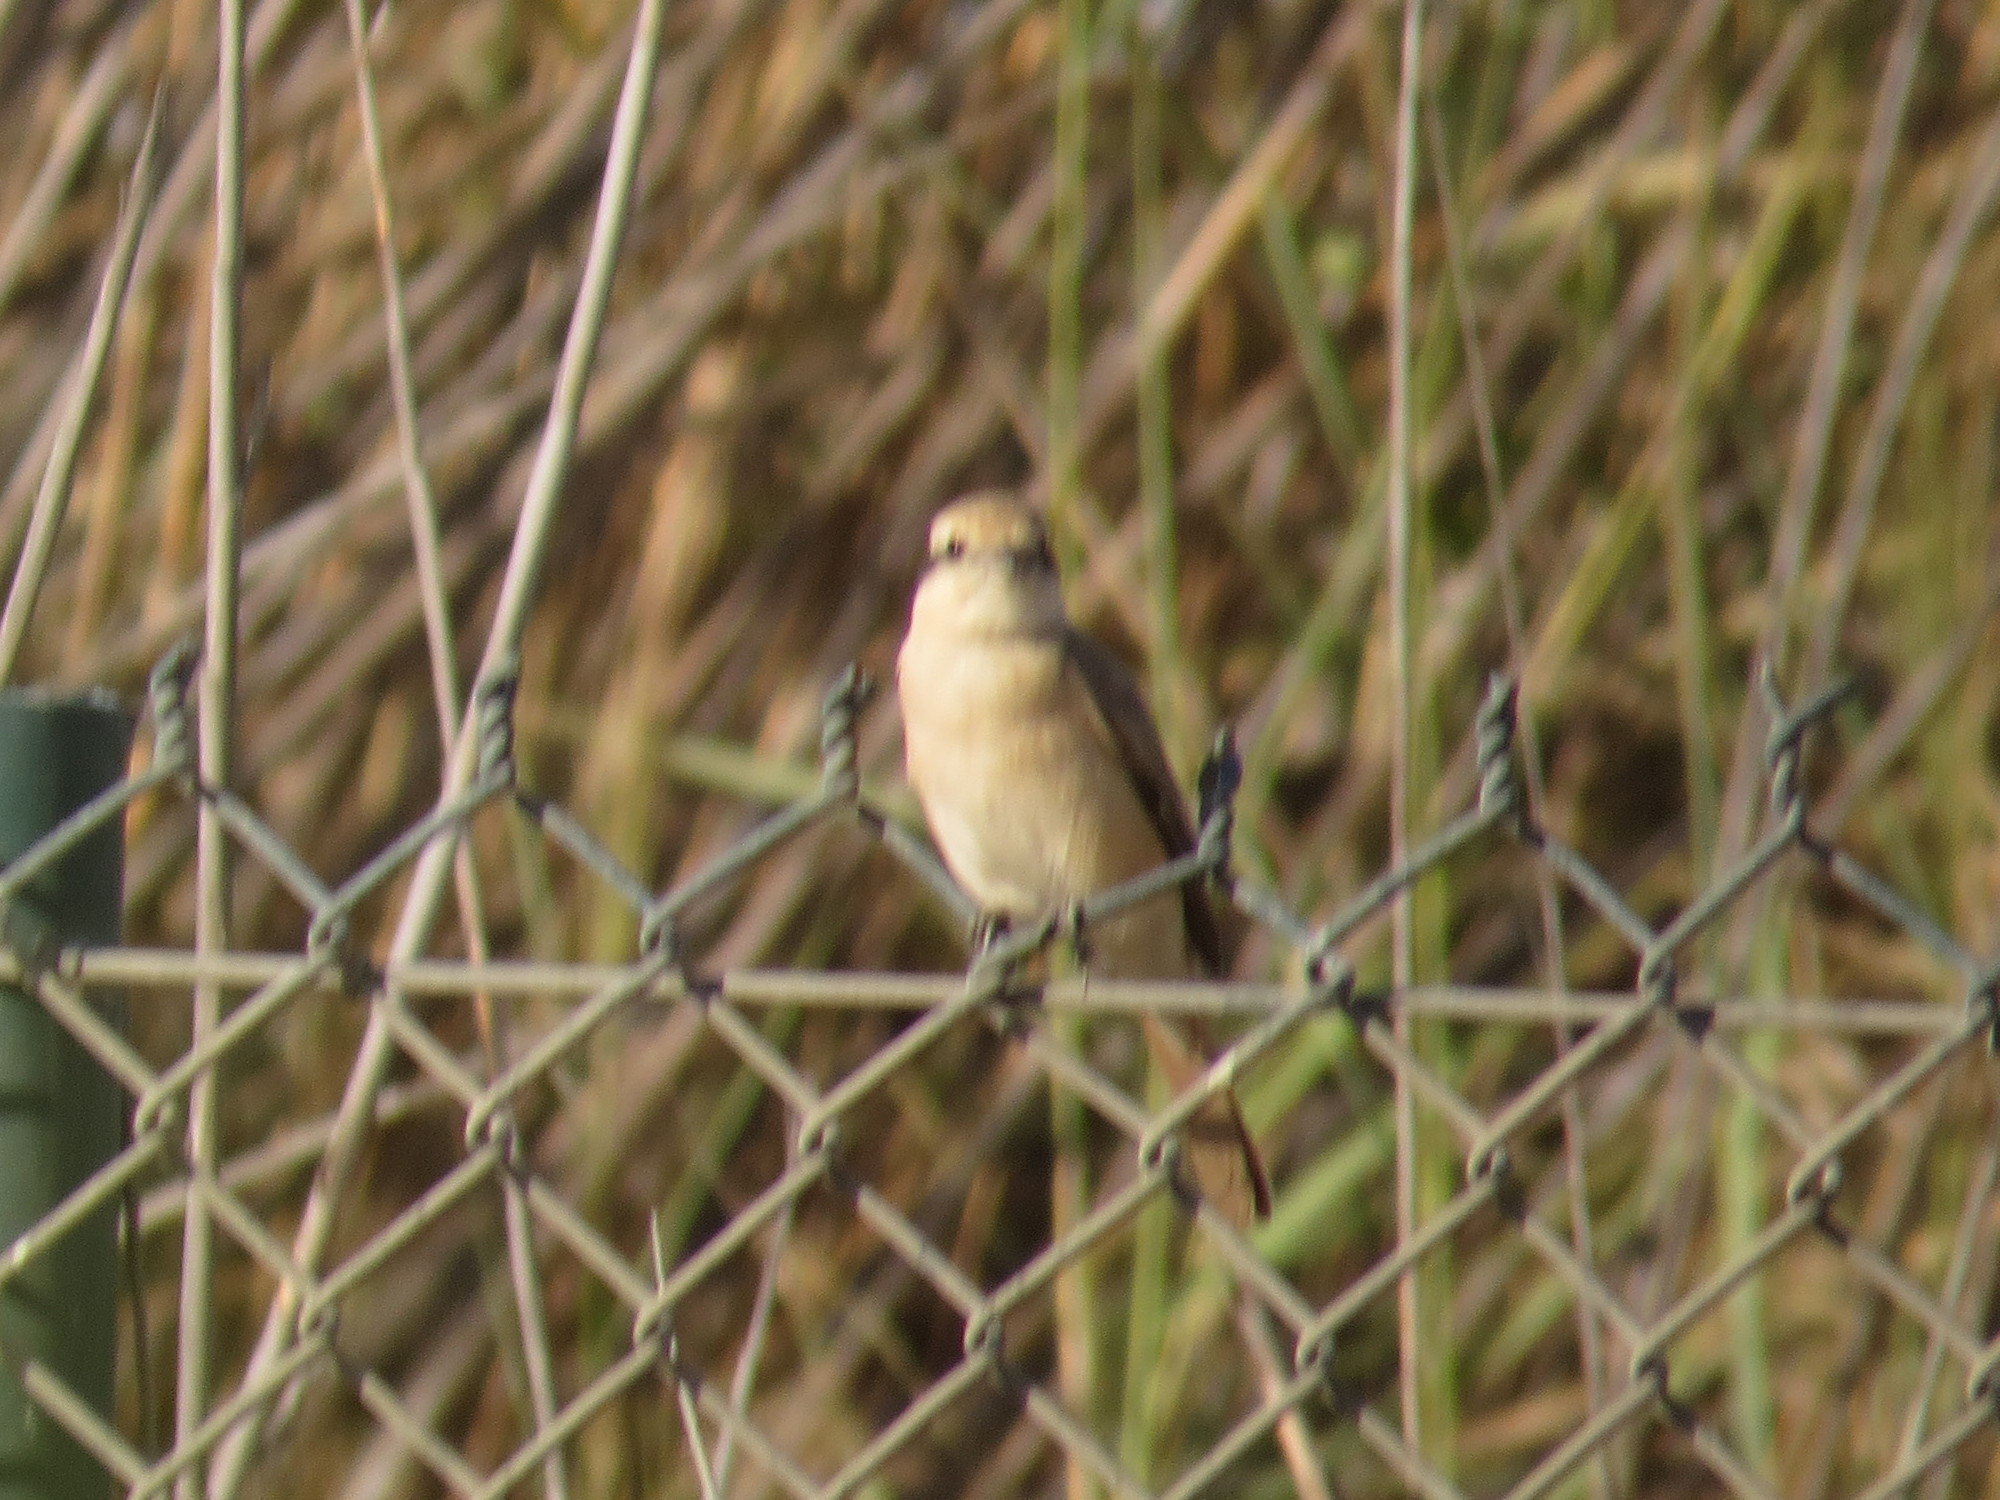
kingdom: Animalia
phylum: Chordata
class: Aves
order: Passeriformes
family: Laniidae
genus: Lanius
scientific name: Lanius isabellinus
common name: Isabelline shrike
